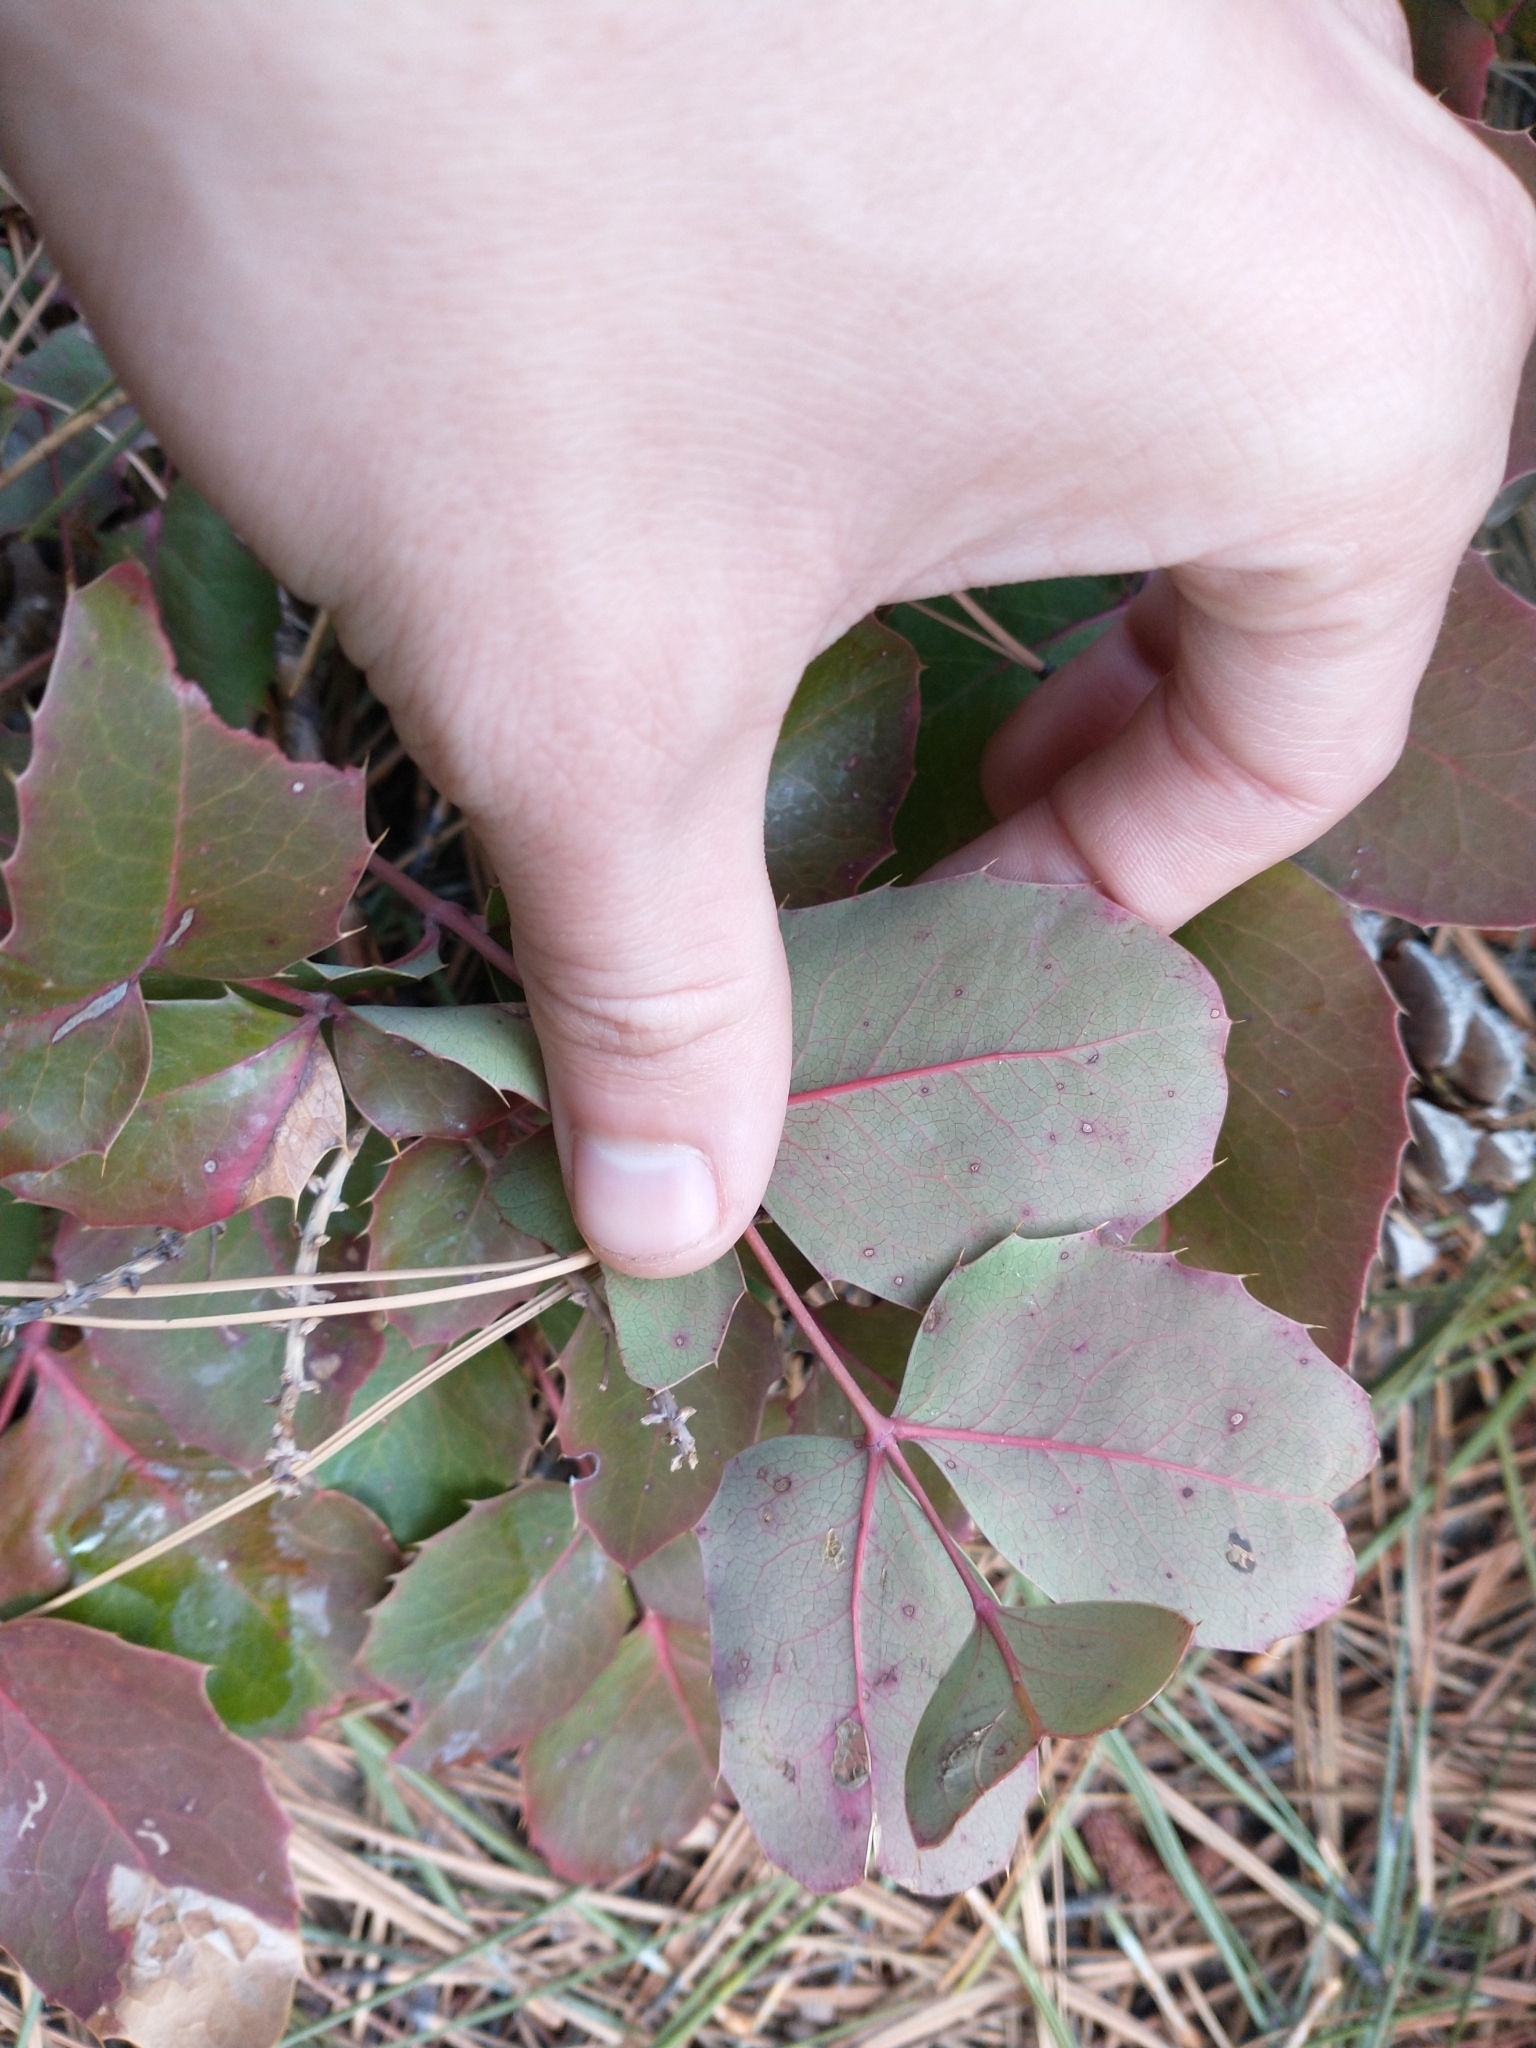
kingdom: Plantae
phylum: Tracheophyta
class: Magnoliopsida
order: Ranunculales
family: Berberidaceae
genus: Mahonia
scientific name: Mahonia repens
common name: Creeping oregon-grape
